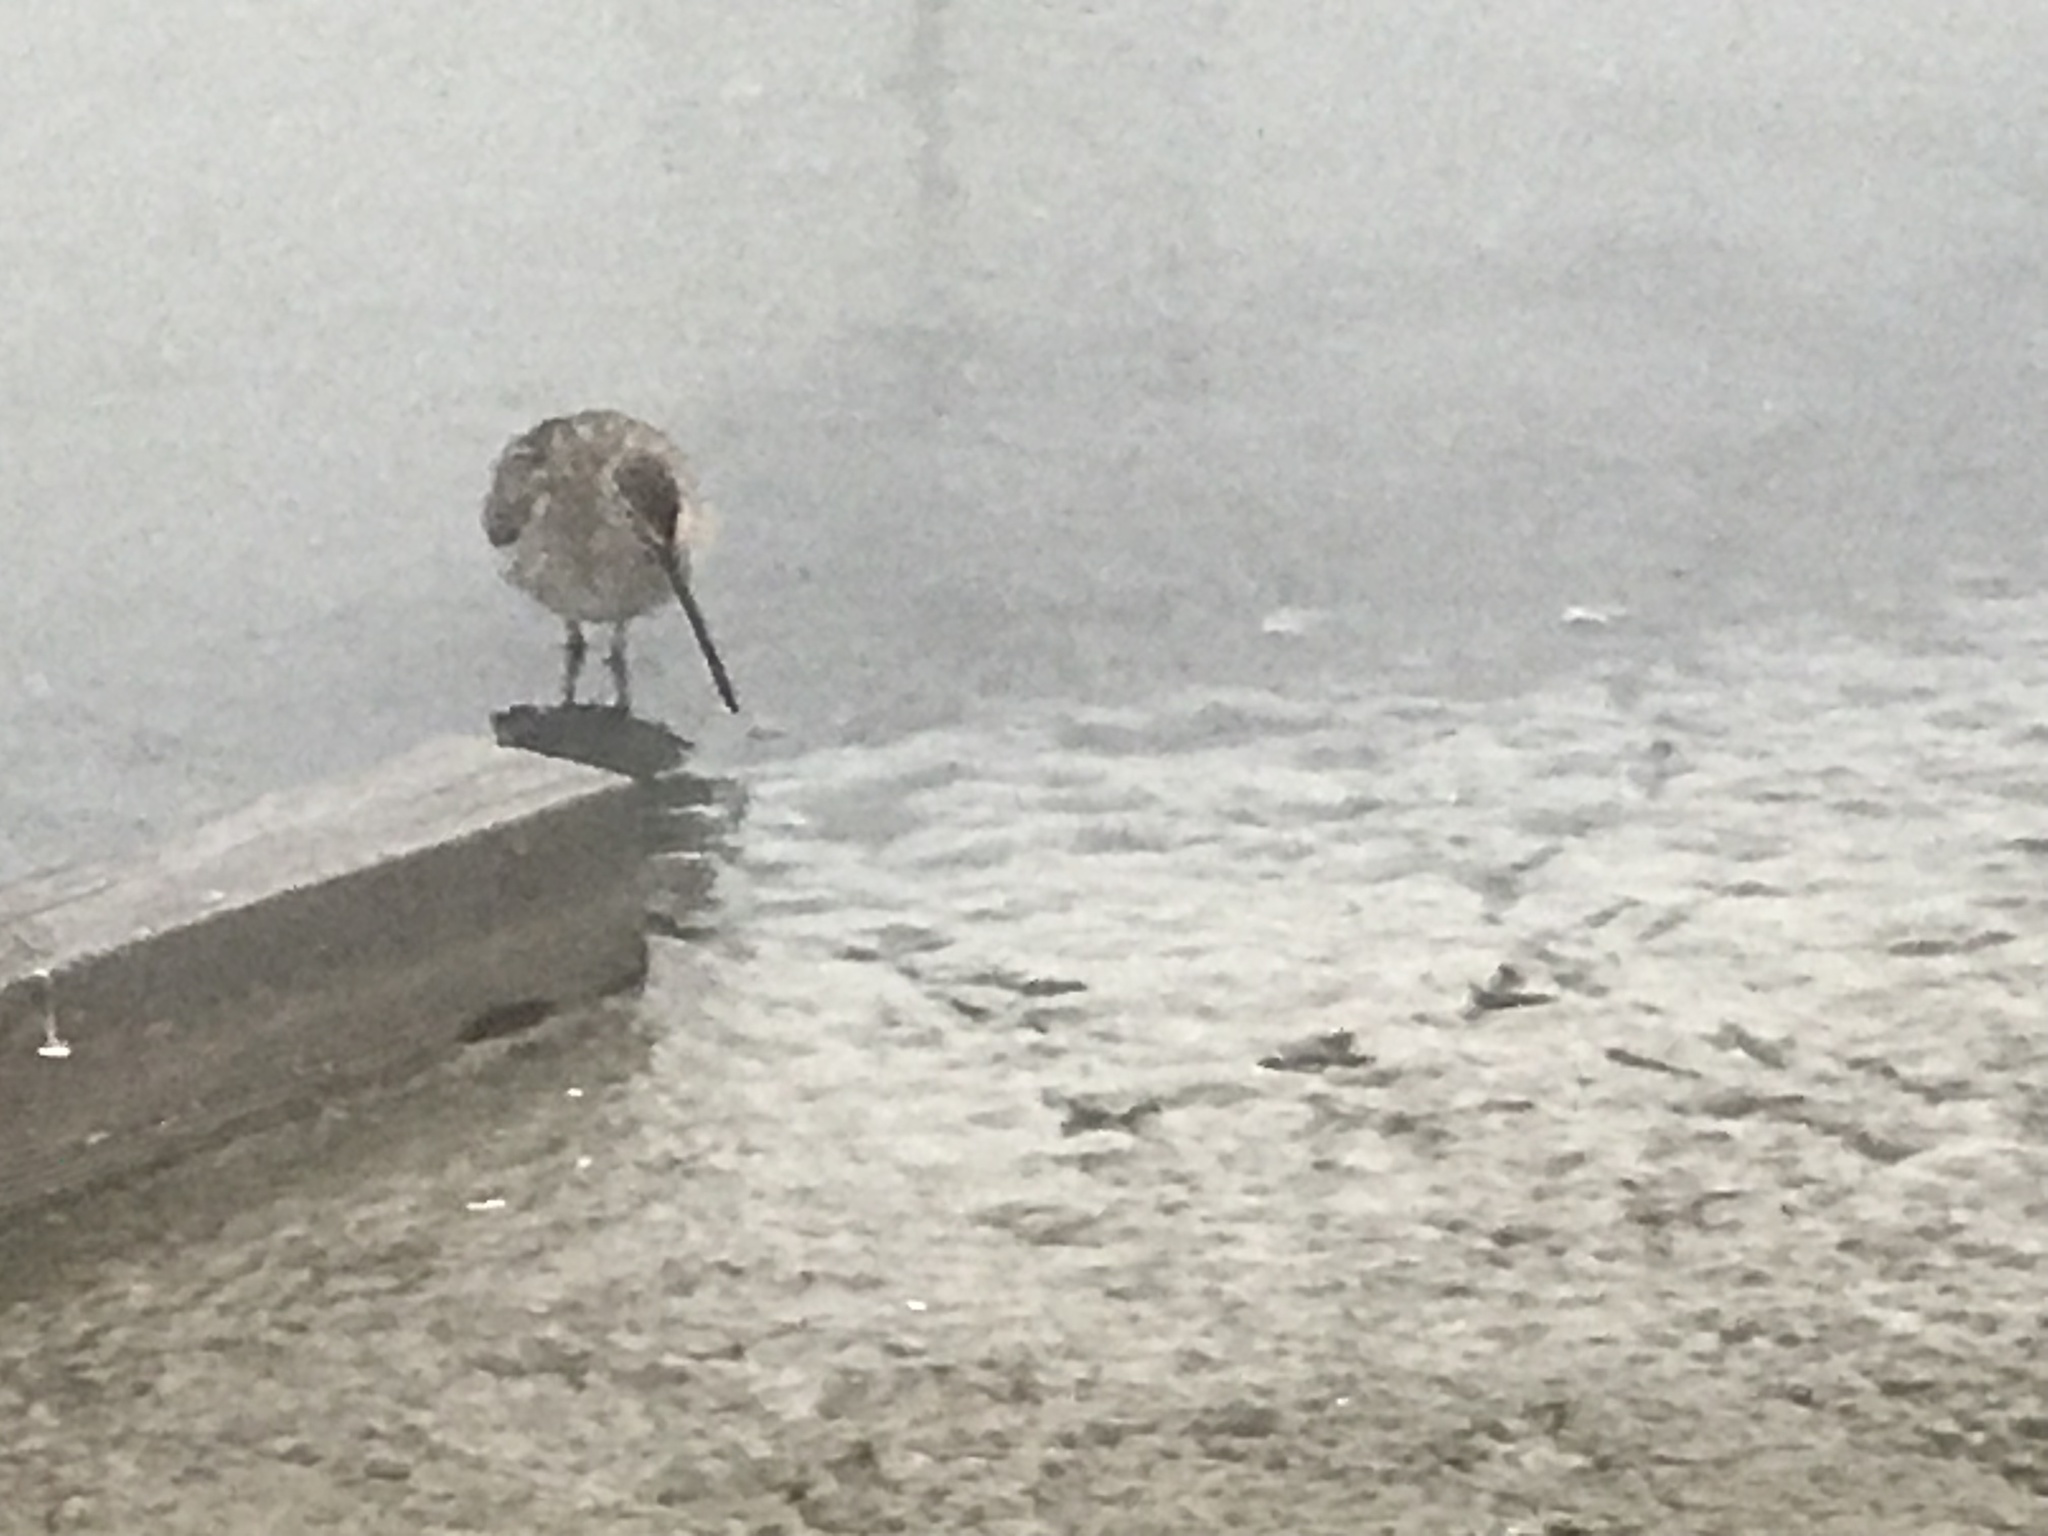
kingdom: Animalia
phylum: Chordata
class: Aves
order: Charadriiformes
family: Scolopacidae
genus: Tringa
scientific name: Tringa semipalmata
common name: Willet
